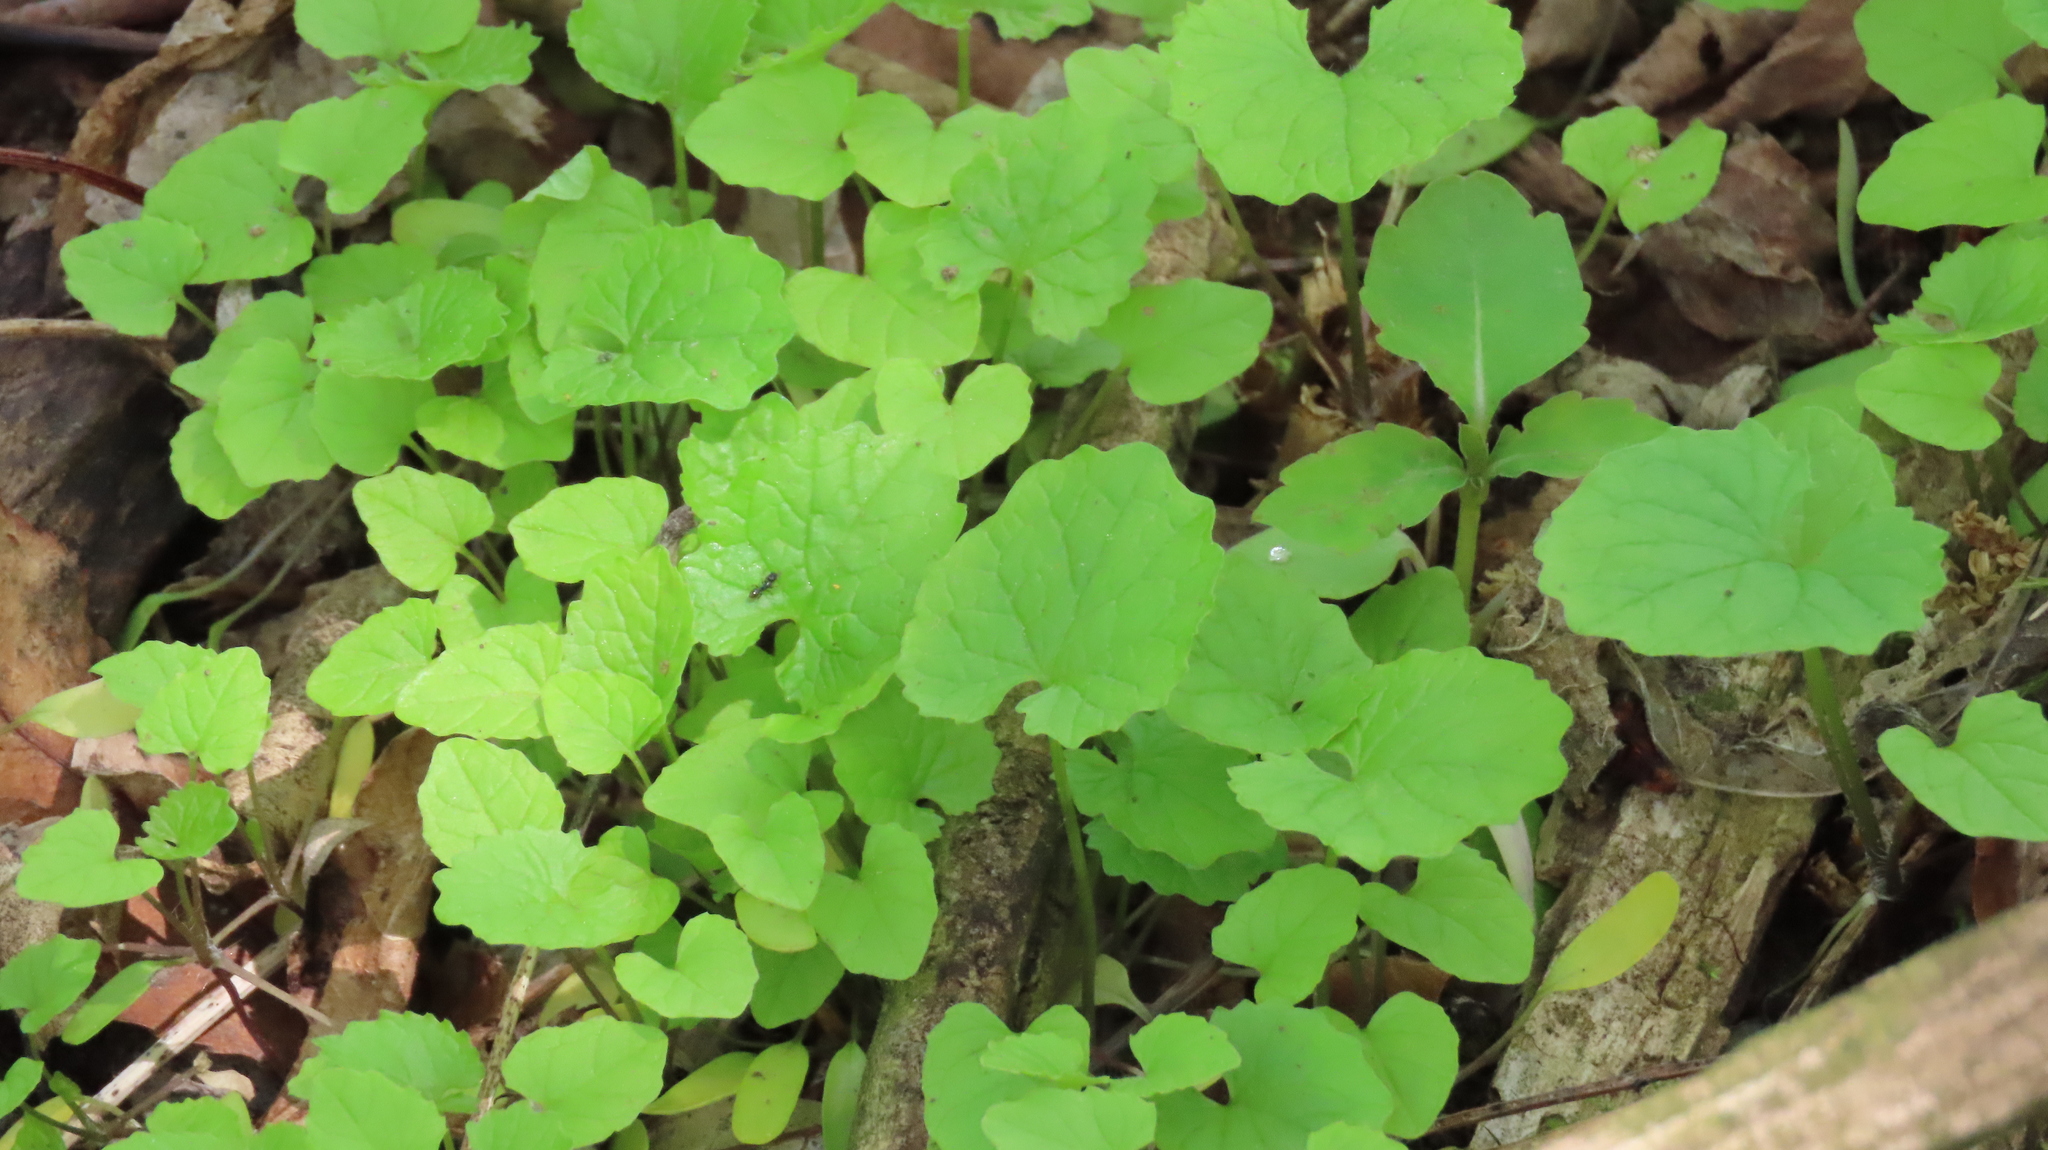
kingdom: Plantae
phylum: Tracheophyta
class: Magnoliopsida
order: Brassicales
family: Brassicaceae
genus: Alliaria
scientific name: Alliaria petiolata
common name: Garlic mustard
